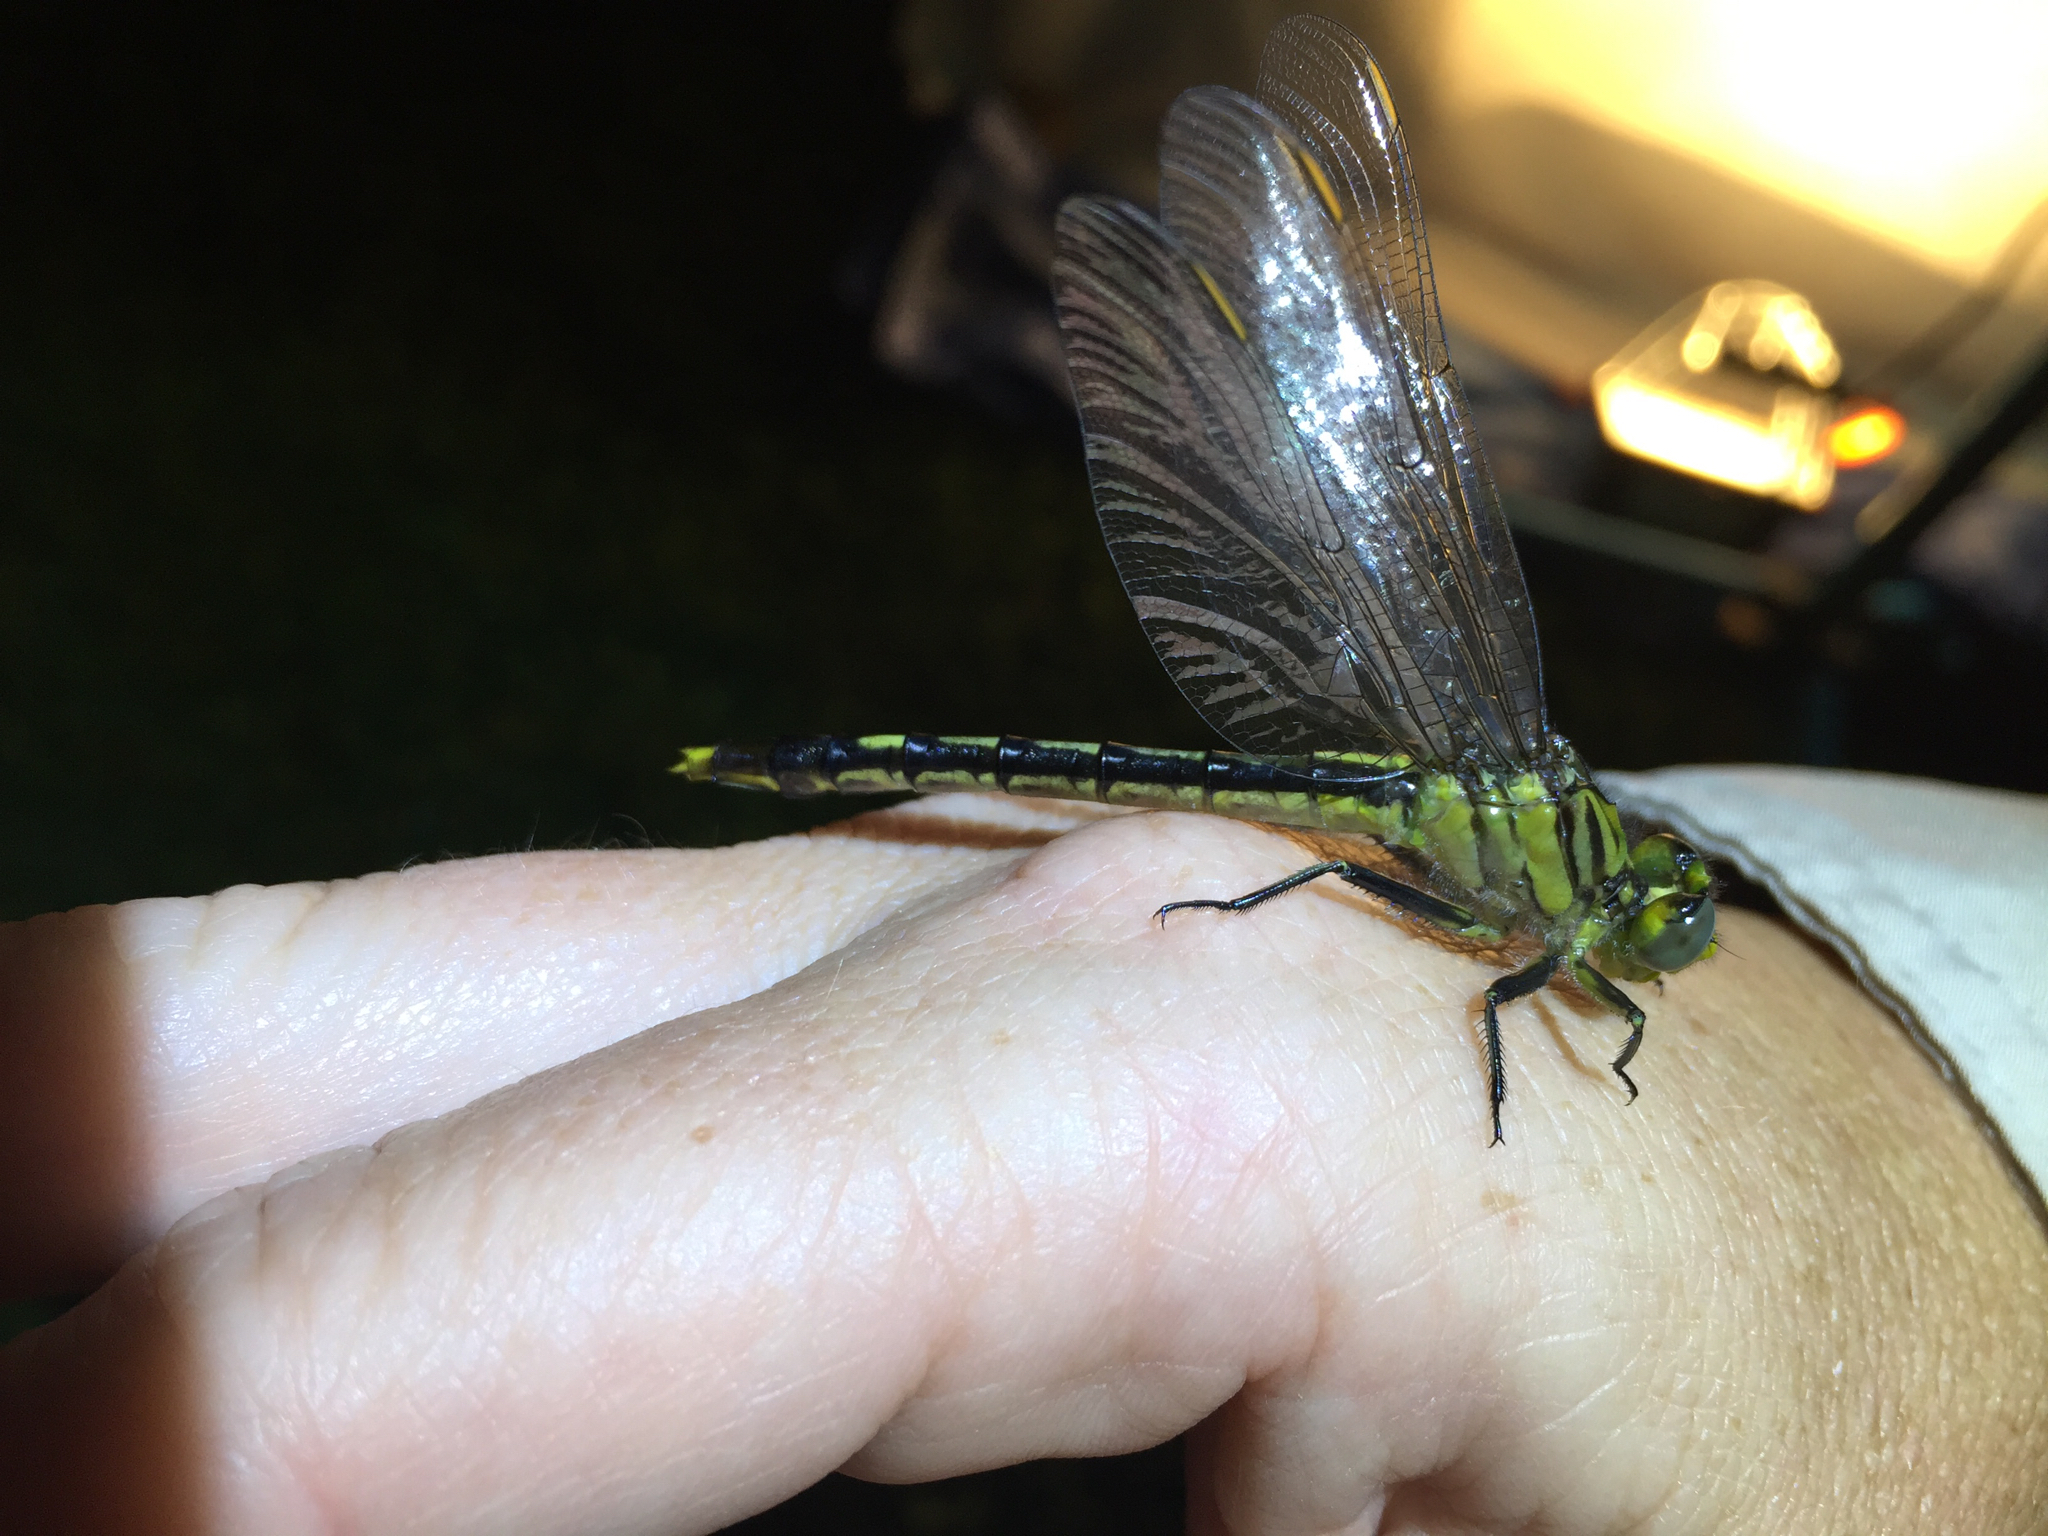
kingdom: Animalia
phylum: Arthropoda
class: Insecta
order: Odonata
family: Gomphidae
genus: Arigomphus
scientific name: Arigomphus villosipes
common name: Unicorn clubtail
